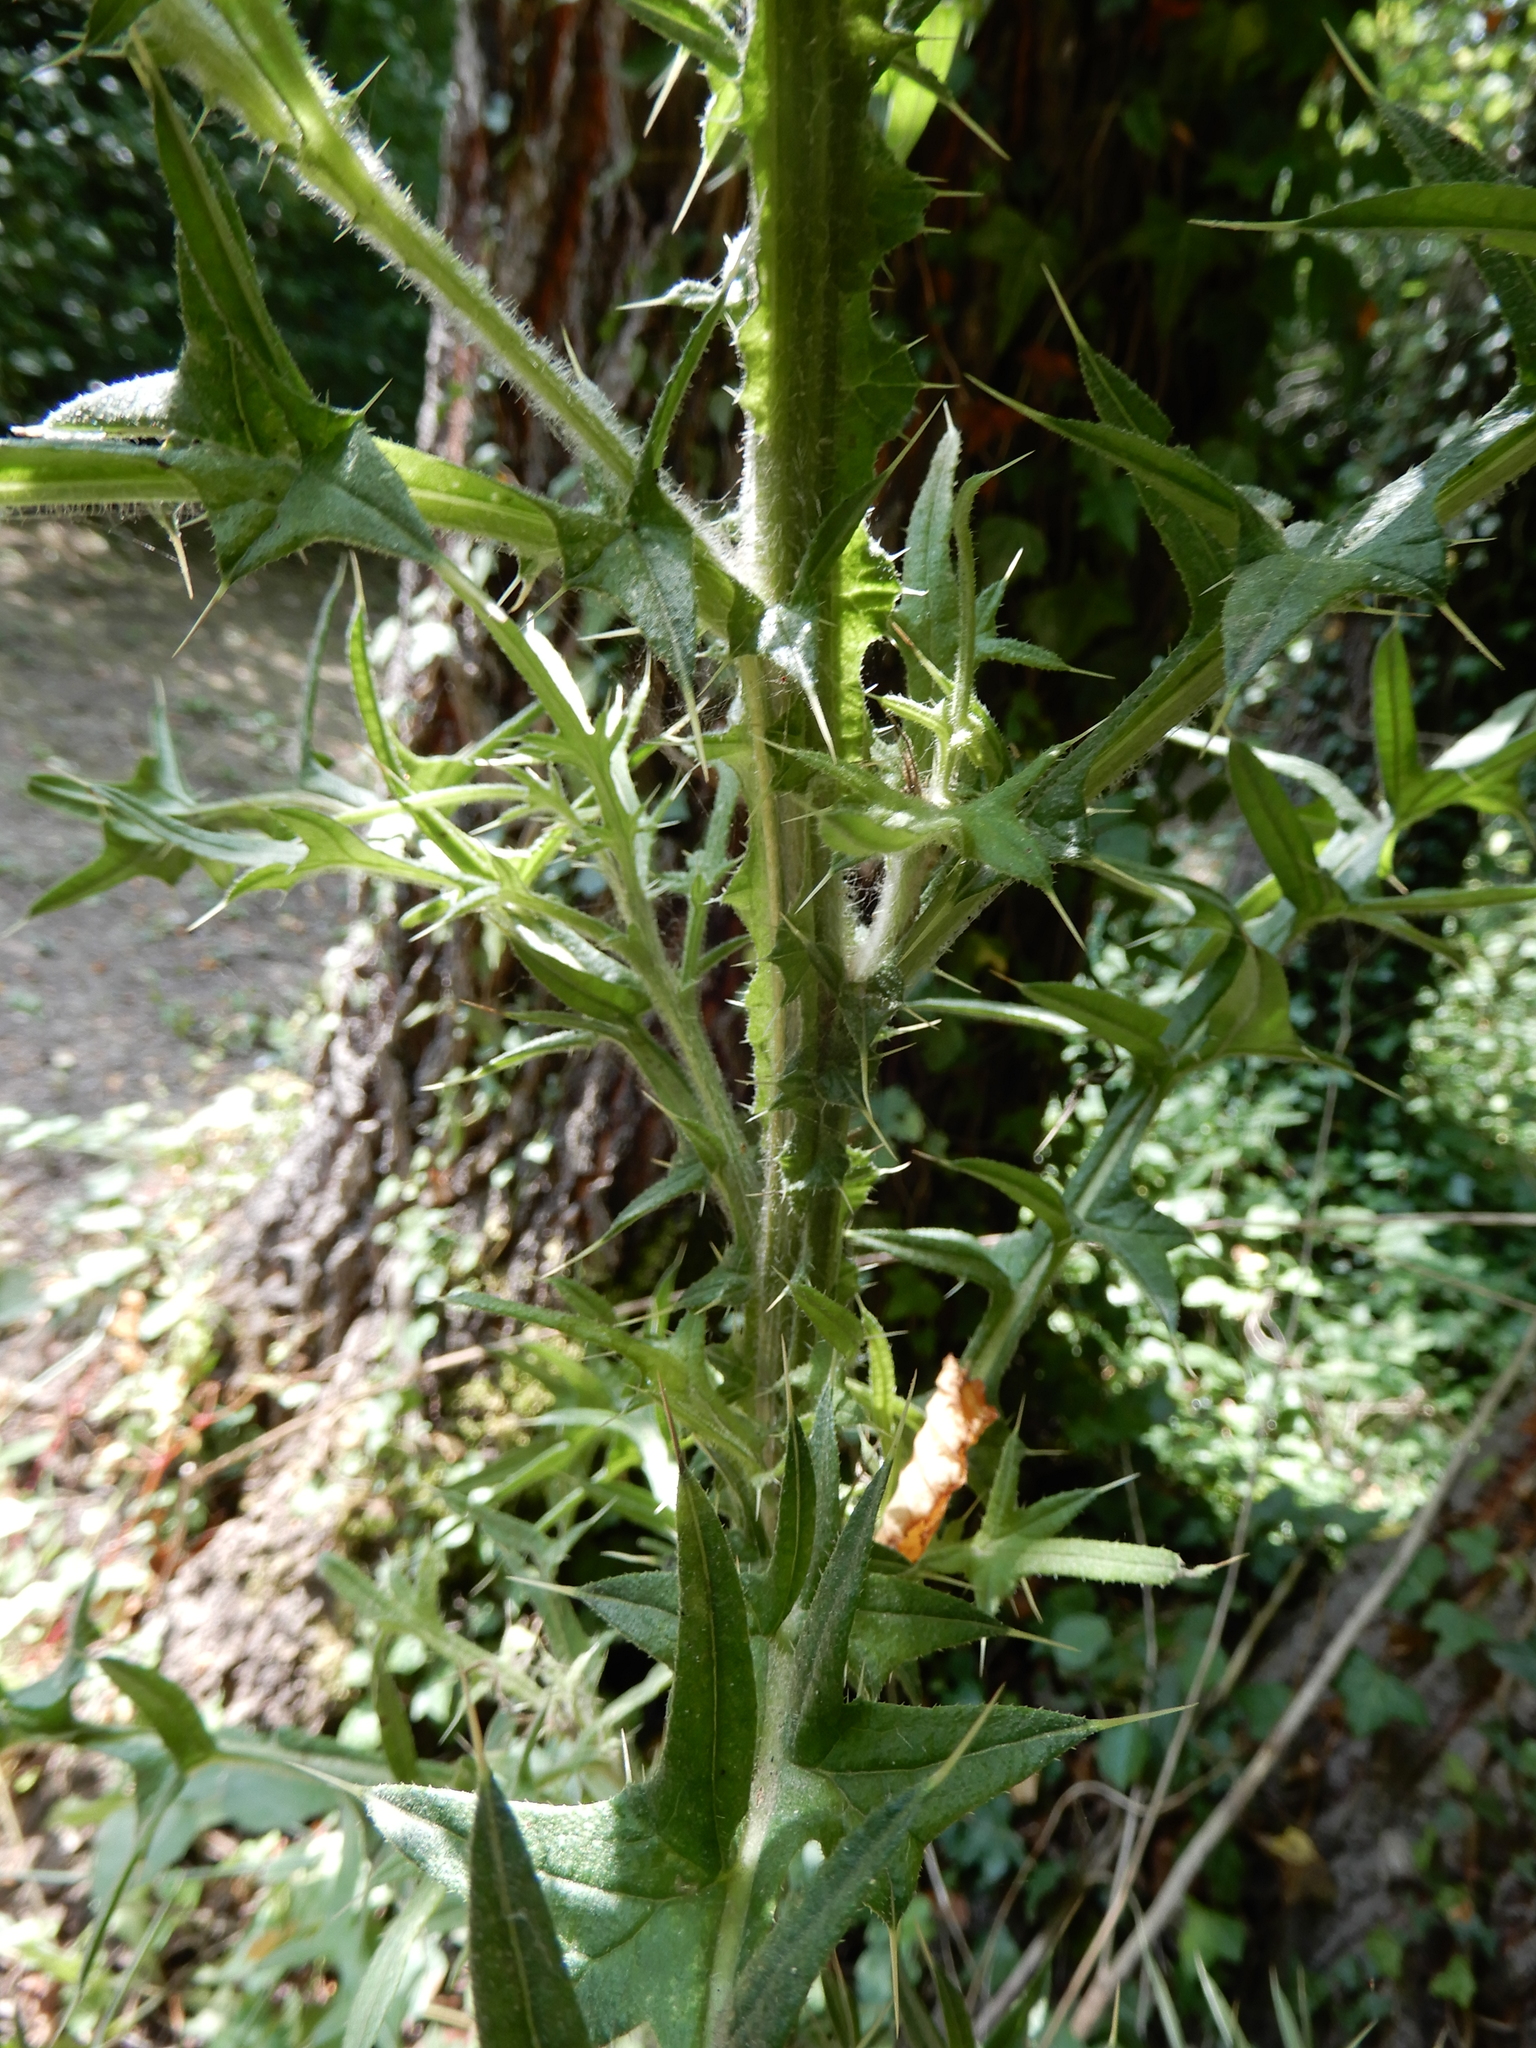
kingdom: Plantae
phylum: Tracheophyta
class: Magnoliopsida
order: Asterales
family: Asteraceae
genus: Cirsium
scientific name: Cirsium vulgare
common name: Bull thistle
